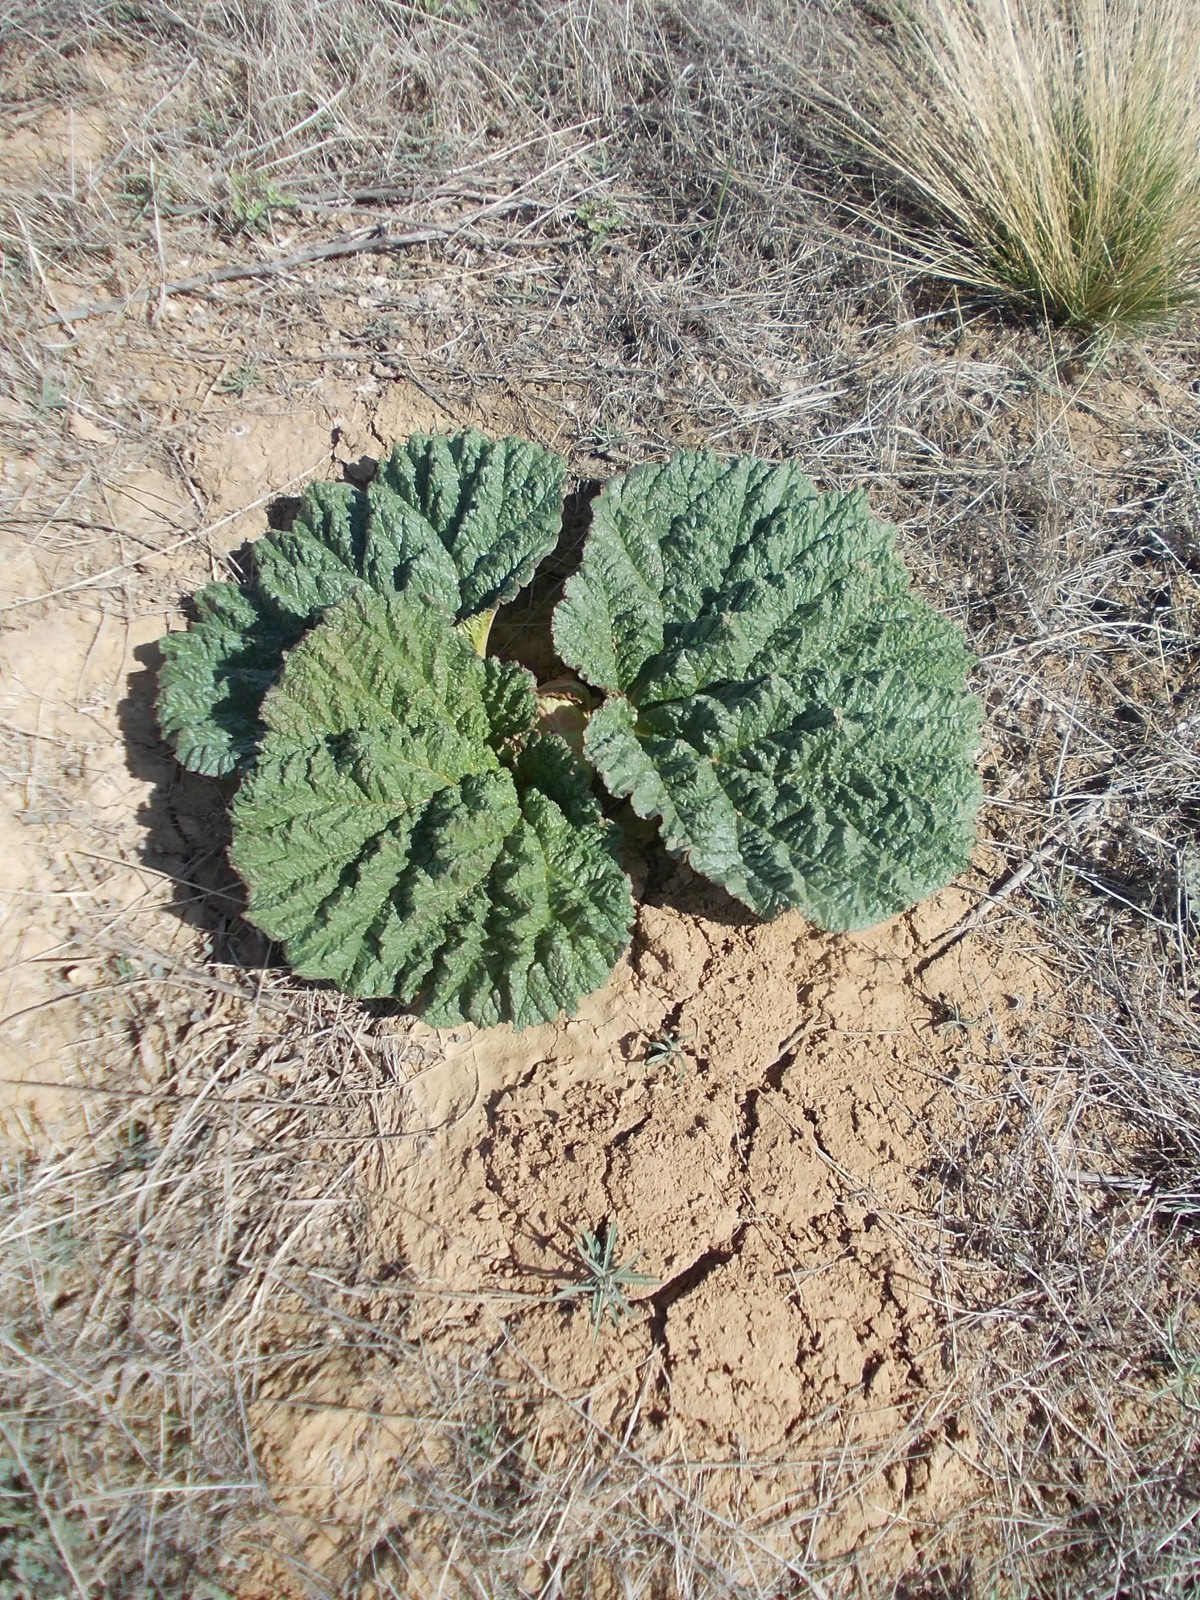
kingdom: Plantae
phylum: Tracheophyta
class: Magnoliopsida
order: Caryophyllales
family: Polygonaceae
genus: Rheum
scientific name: Rheum tataricum
